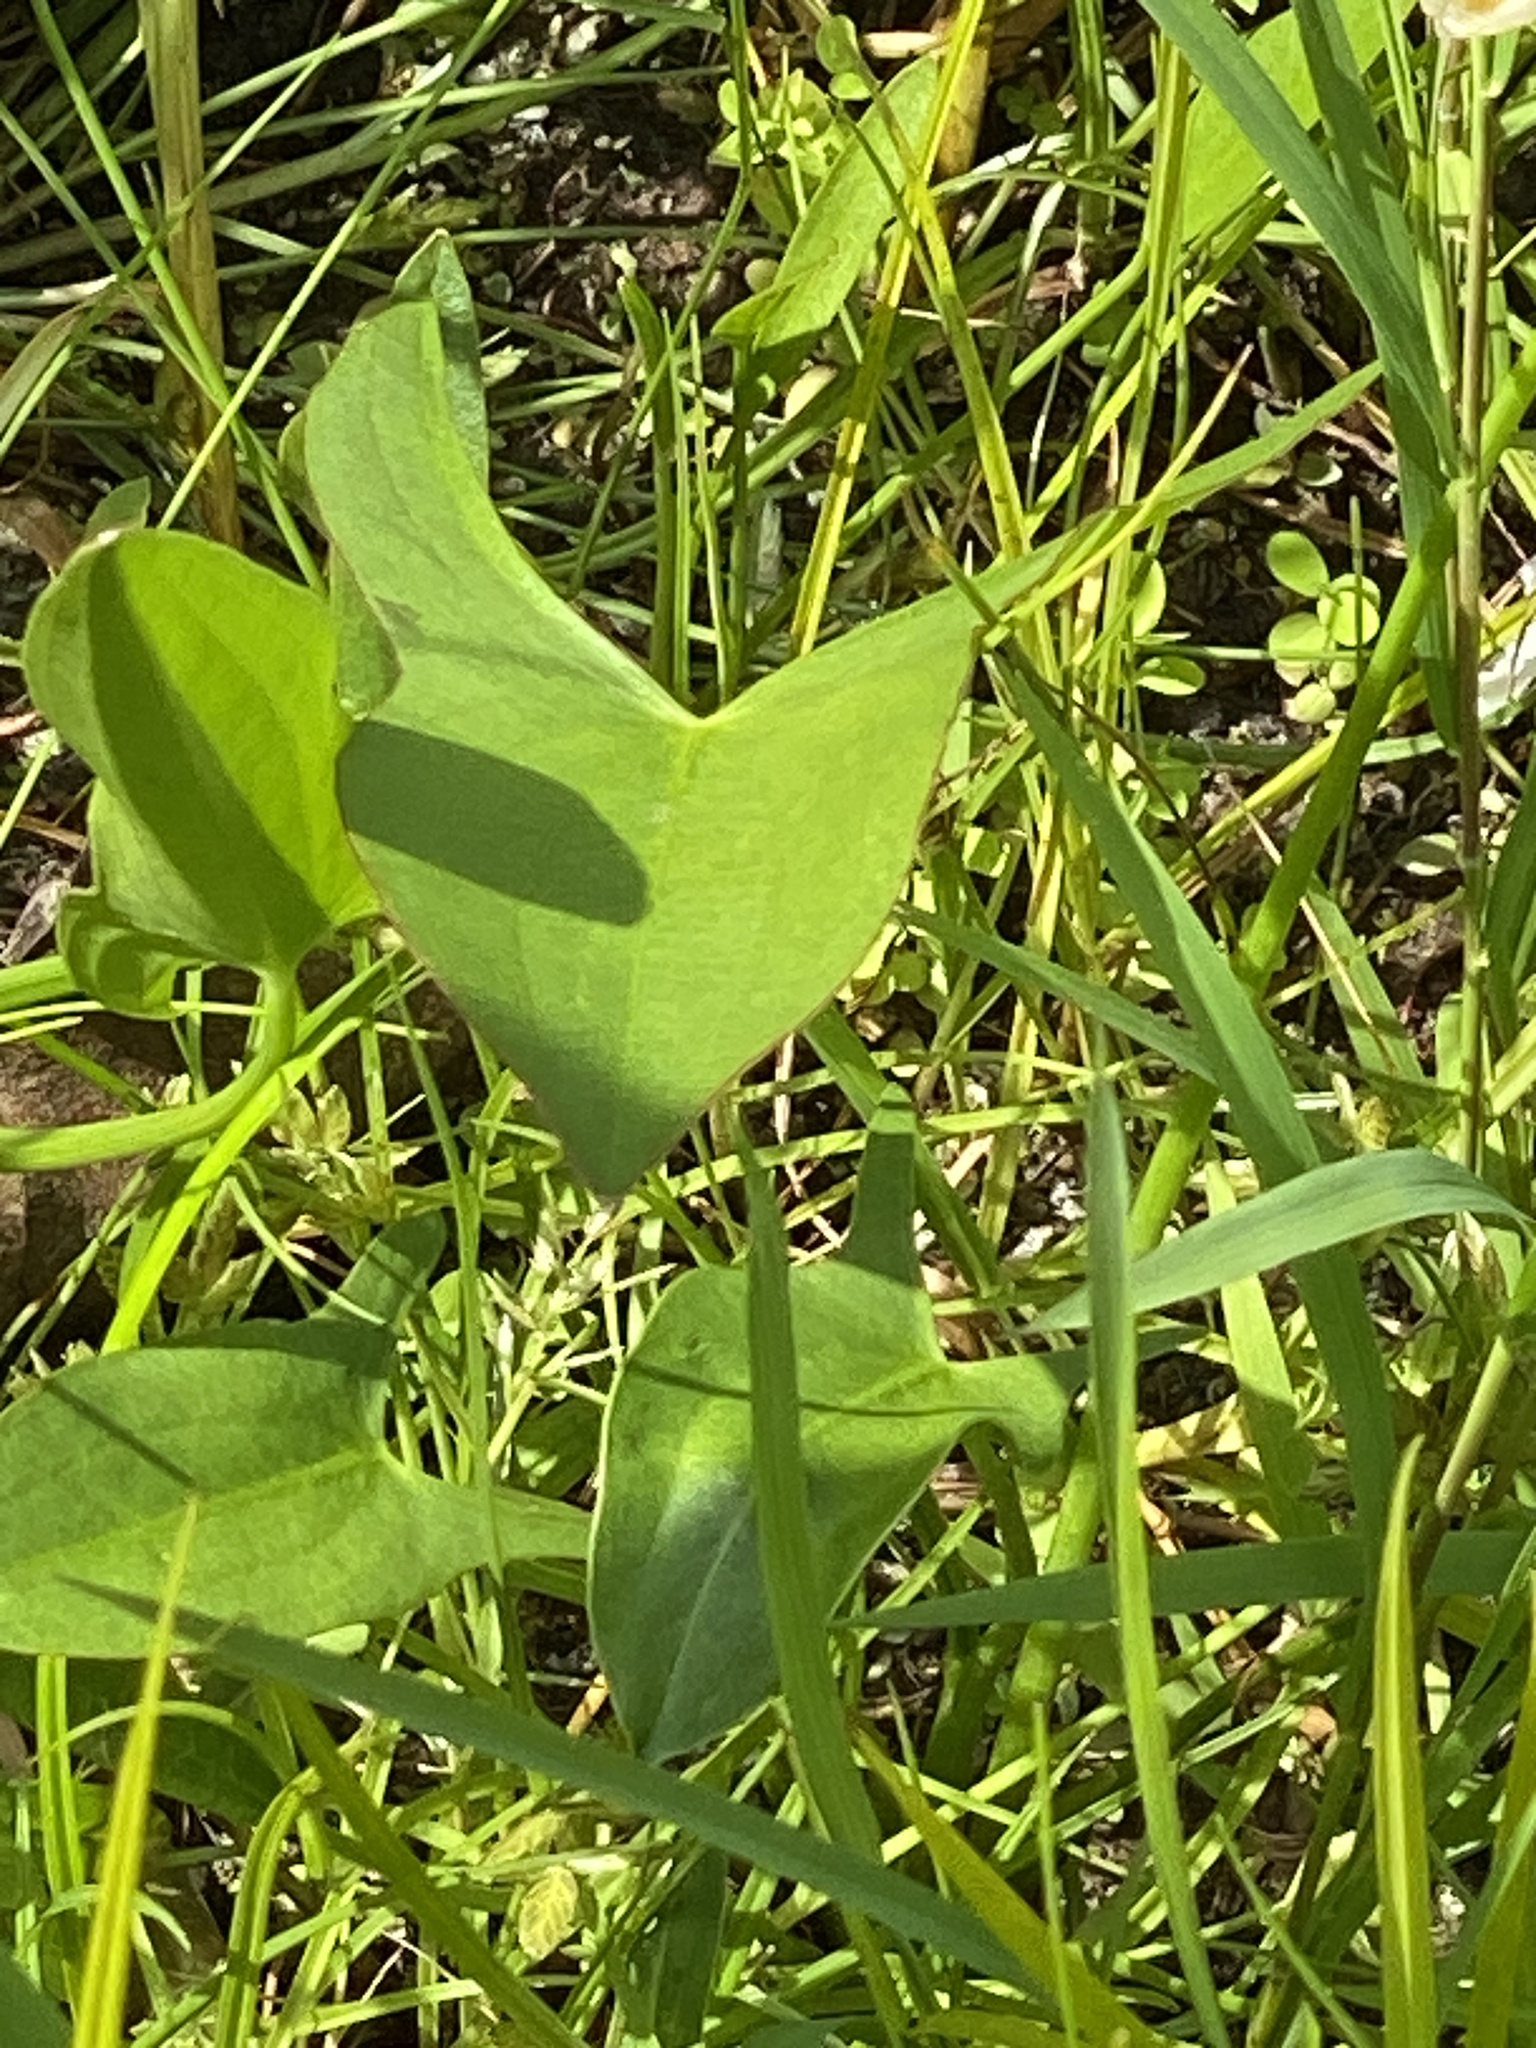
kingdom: Plantae
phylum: Tracheophyta
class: Liliopsida
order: Alismatales
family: Alismataceae
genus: Sagittaria
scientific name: Sagittaria latifolia
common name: Duck-potato
